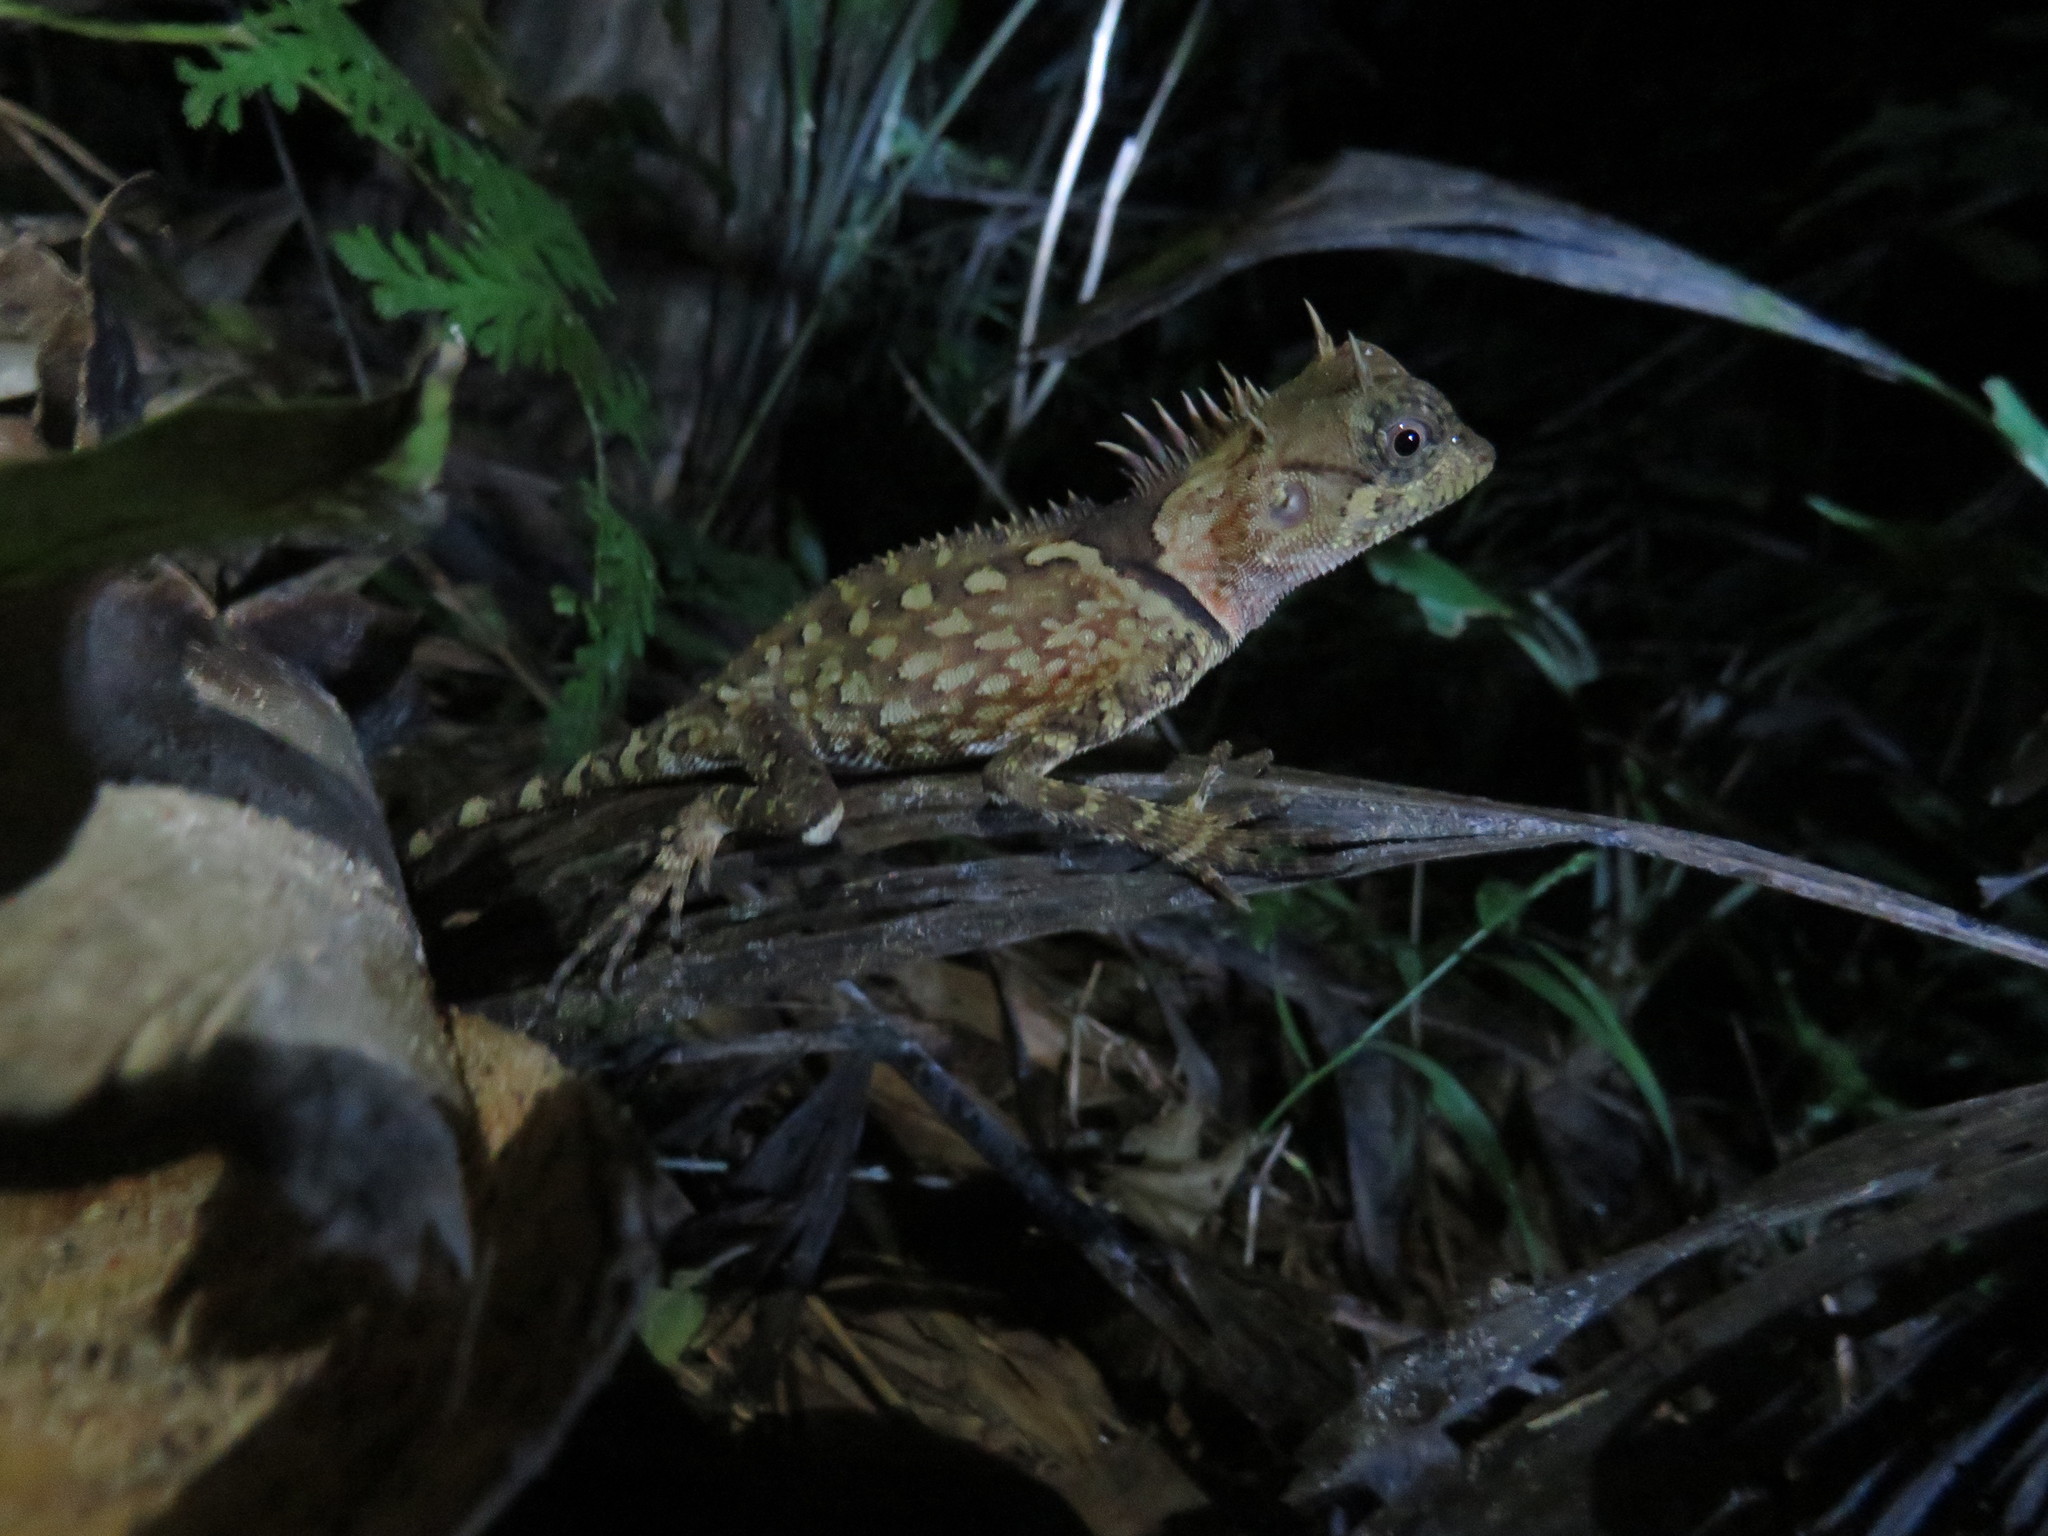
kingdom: Animalia
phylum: Chordata
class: Squamata
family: Agamidae
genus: Acanthosaura
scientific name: Acanthosaura phuketensis
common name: Phuket horned tree agamid
